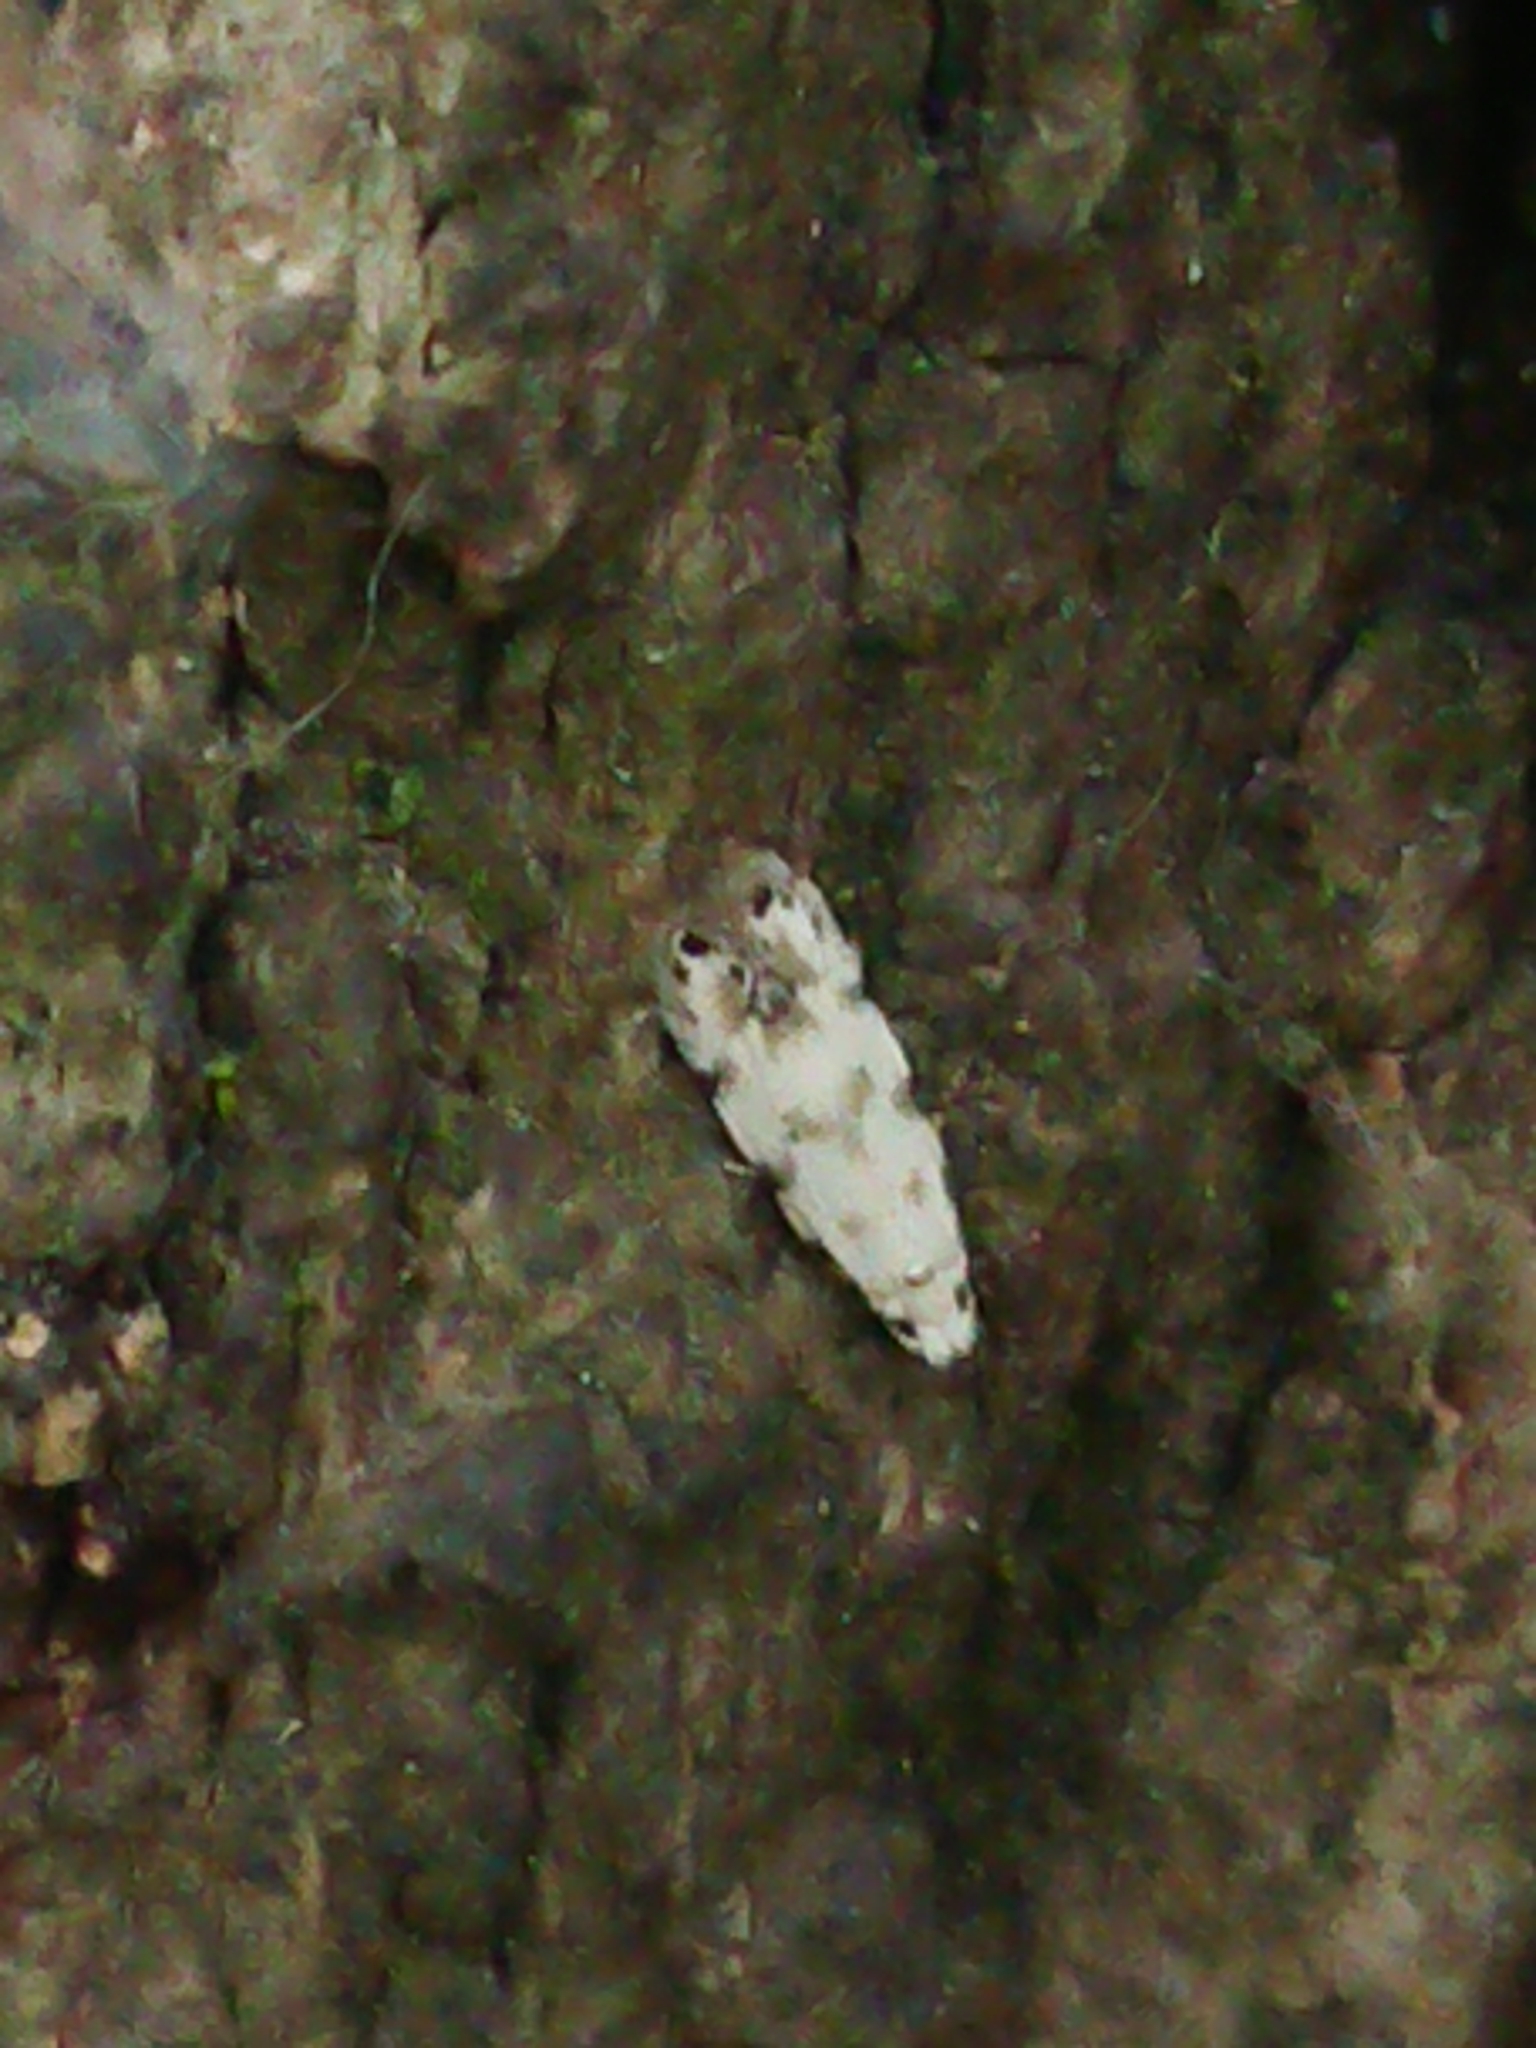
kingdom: Animalia
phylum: Arthropoda
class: Insecta
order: Lepidoptera
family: Tineidae
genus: Crypsitricha
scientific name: Crypsitricha stereota
